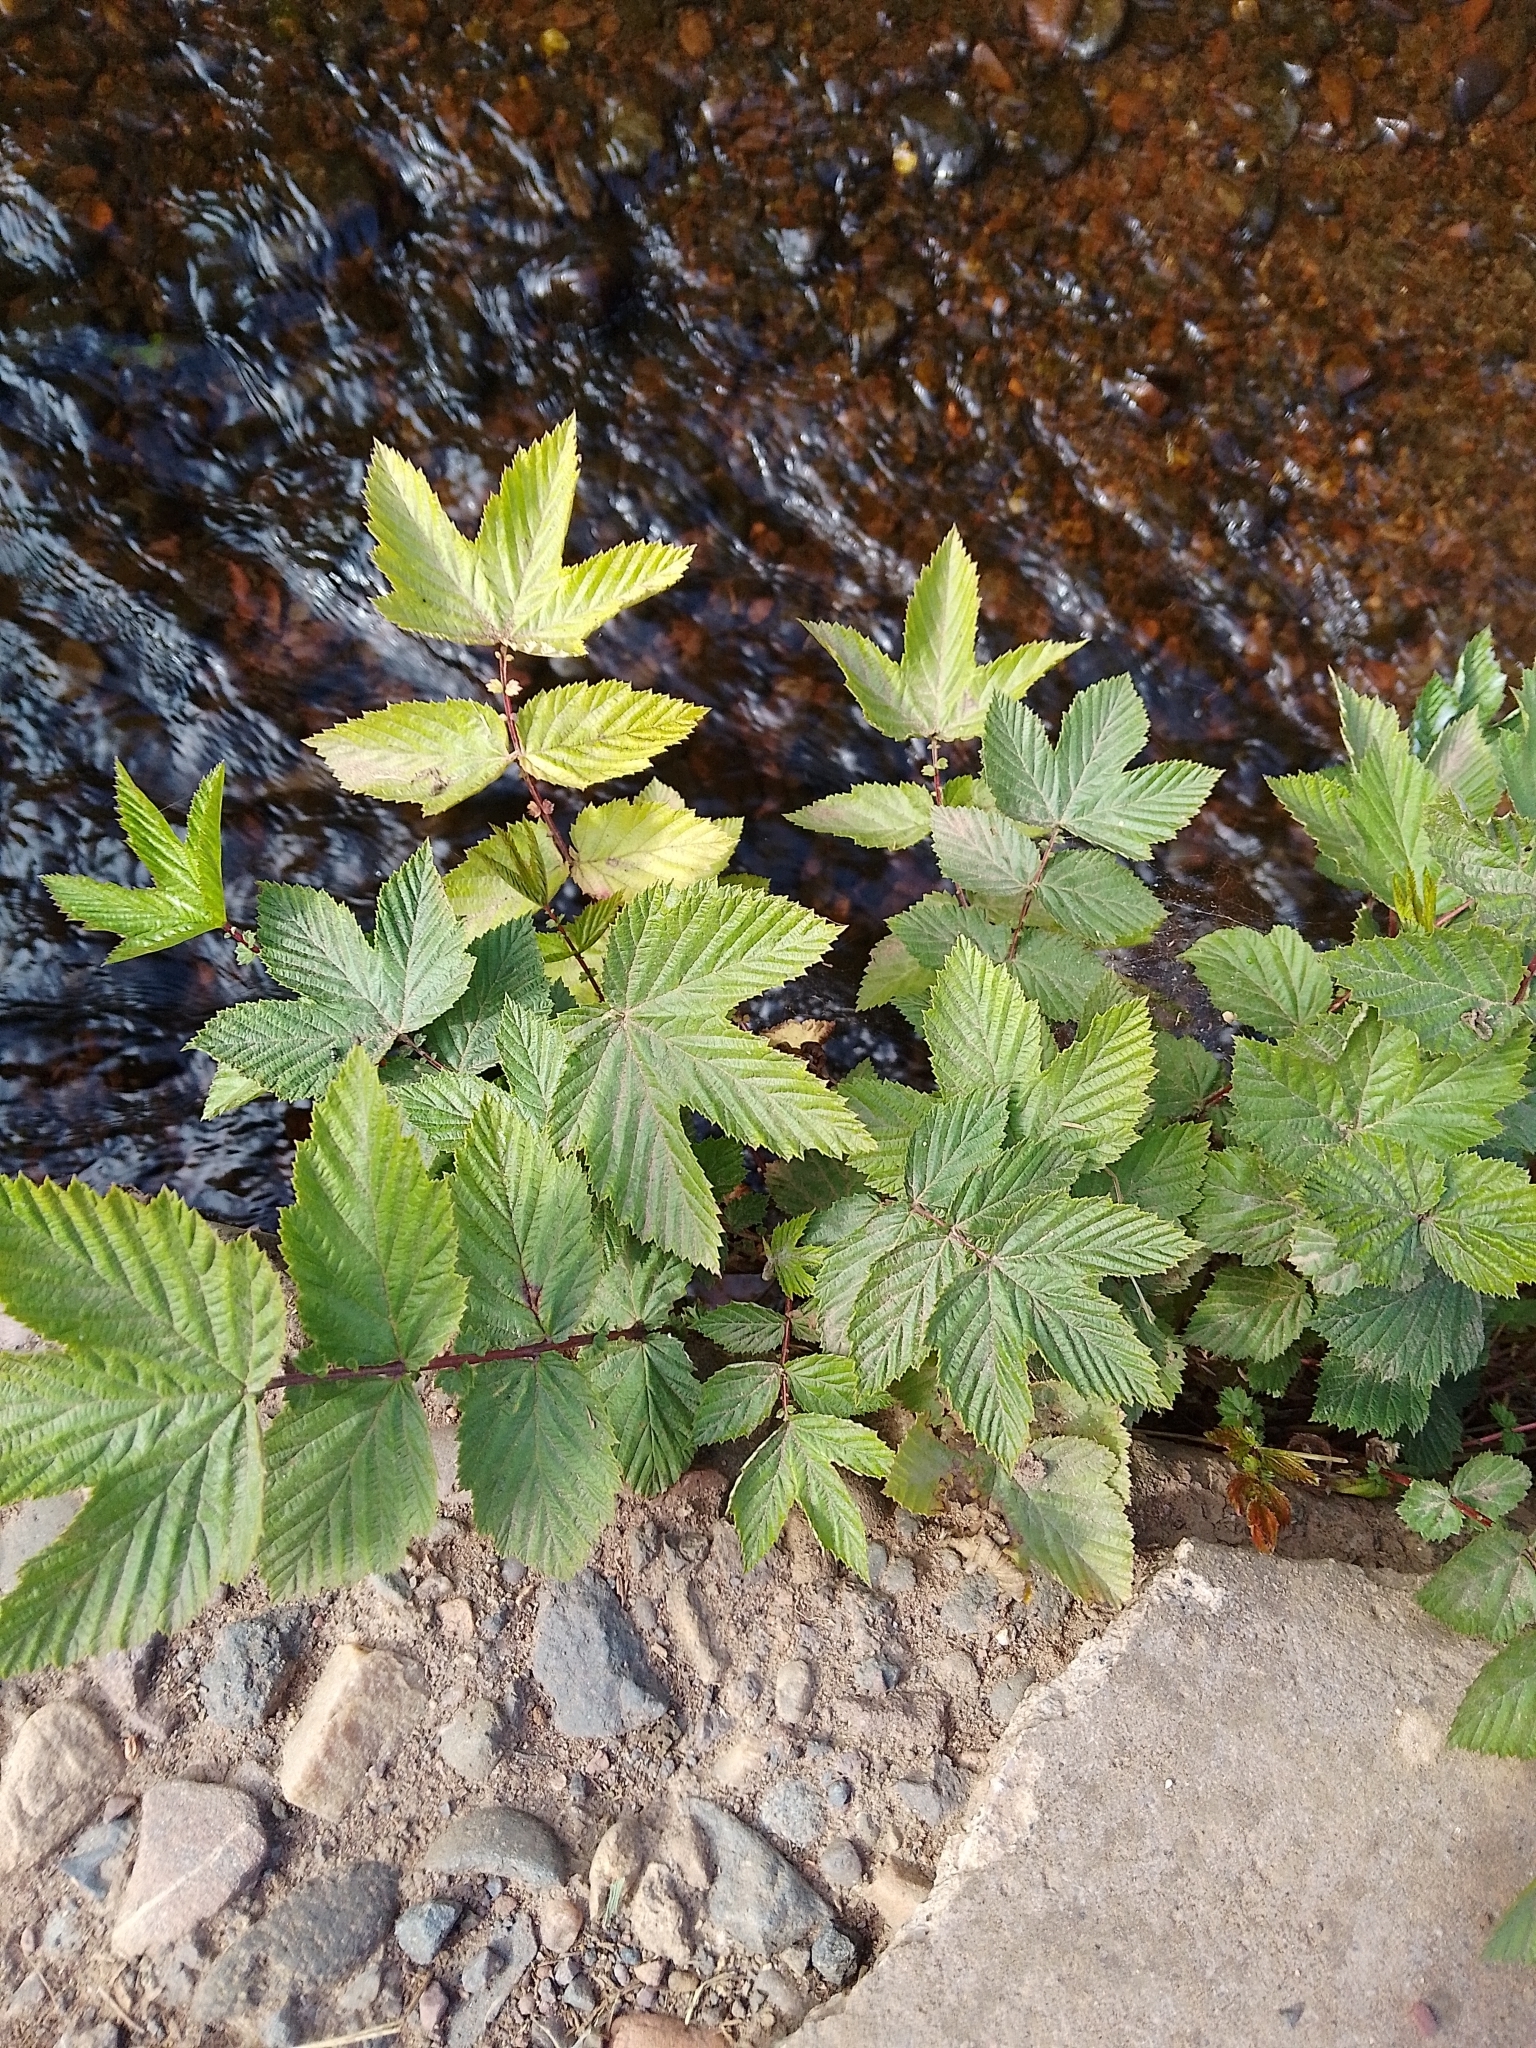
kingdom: Plantae
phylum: Tracheophyta
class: Magnoliopsida
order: Rosales
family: Rosaceae
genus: Filipendula
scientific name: Filipendula ulmaria
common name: Meadowsweet
